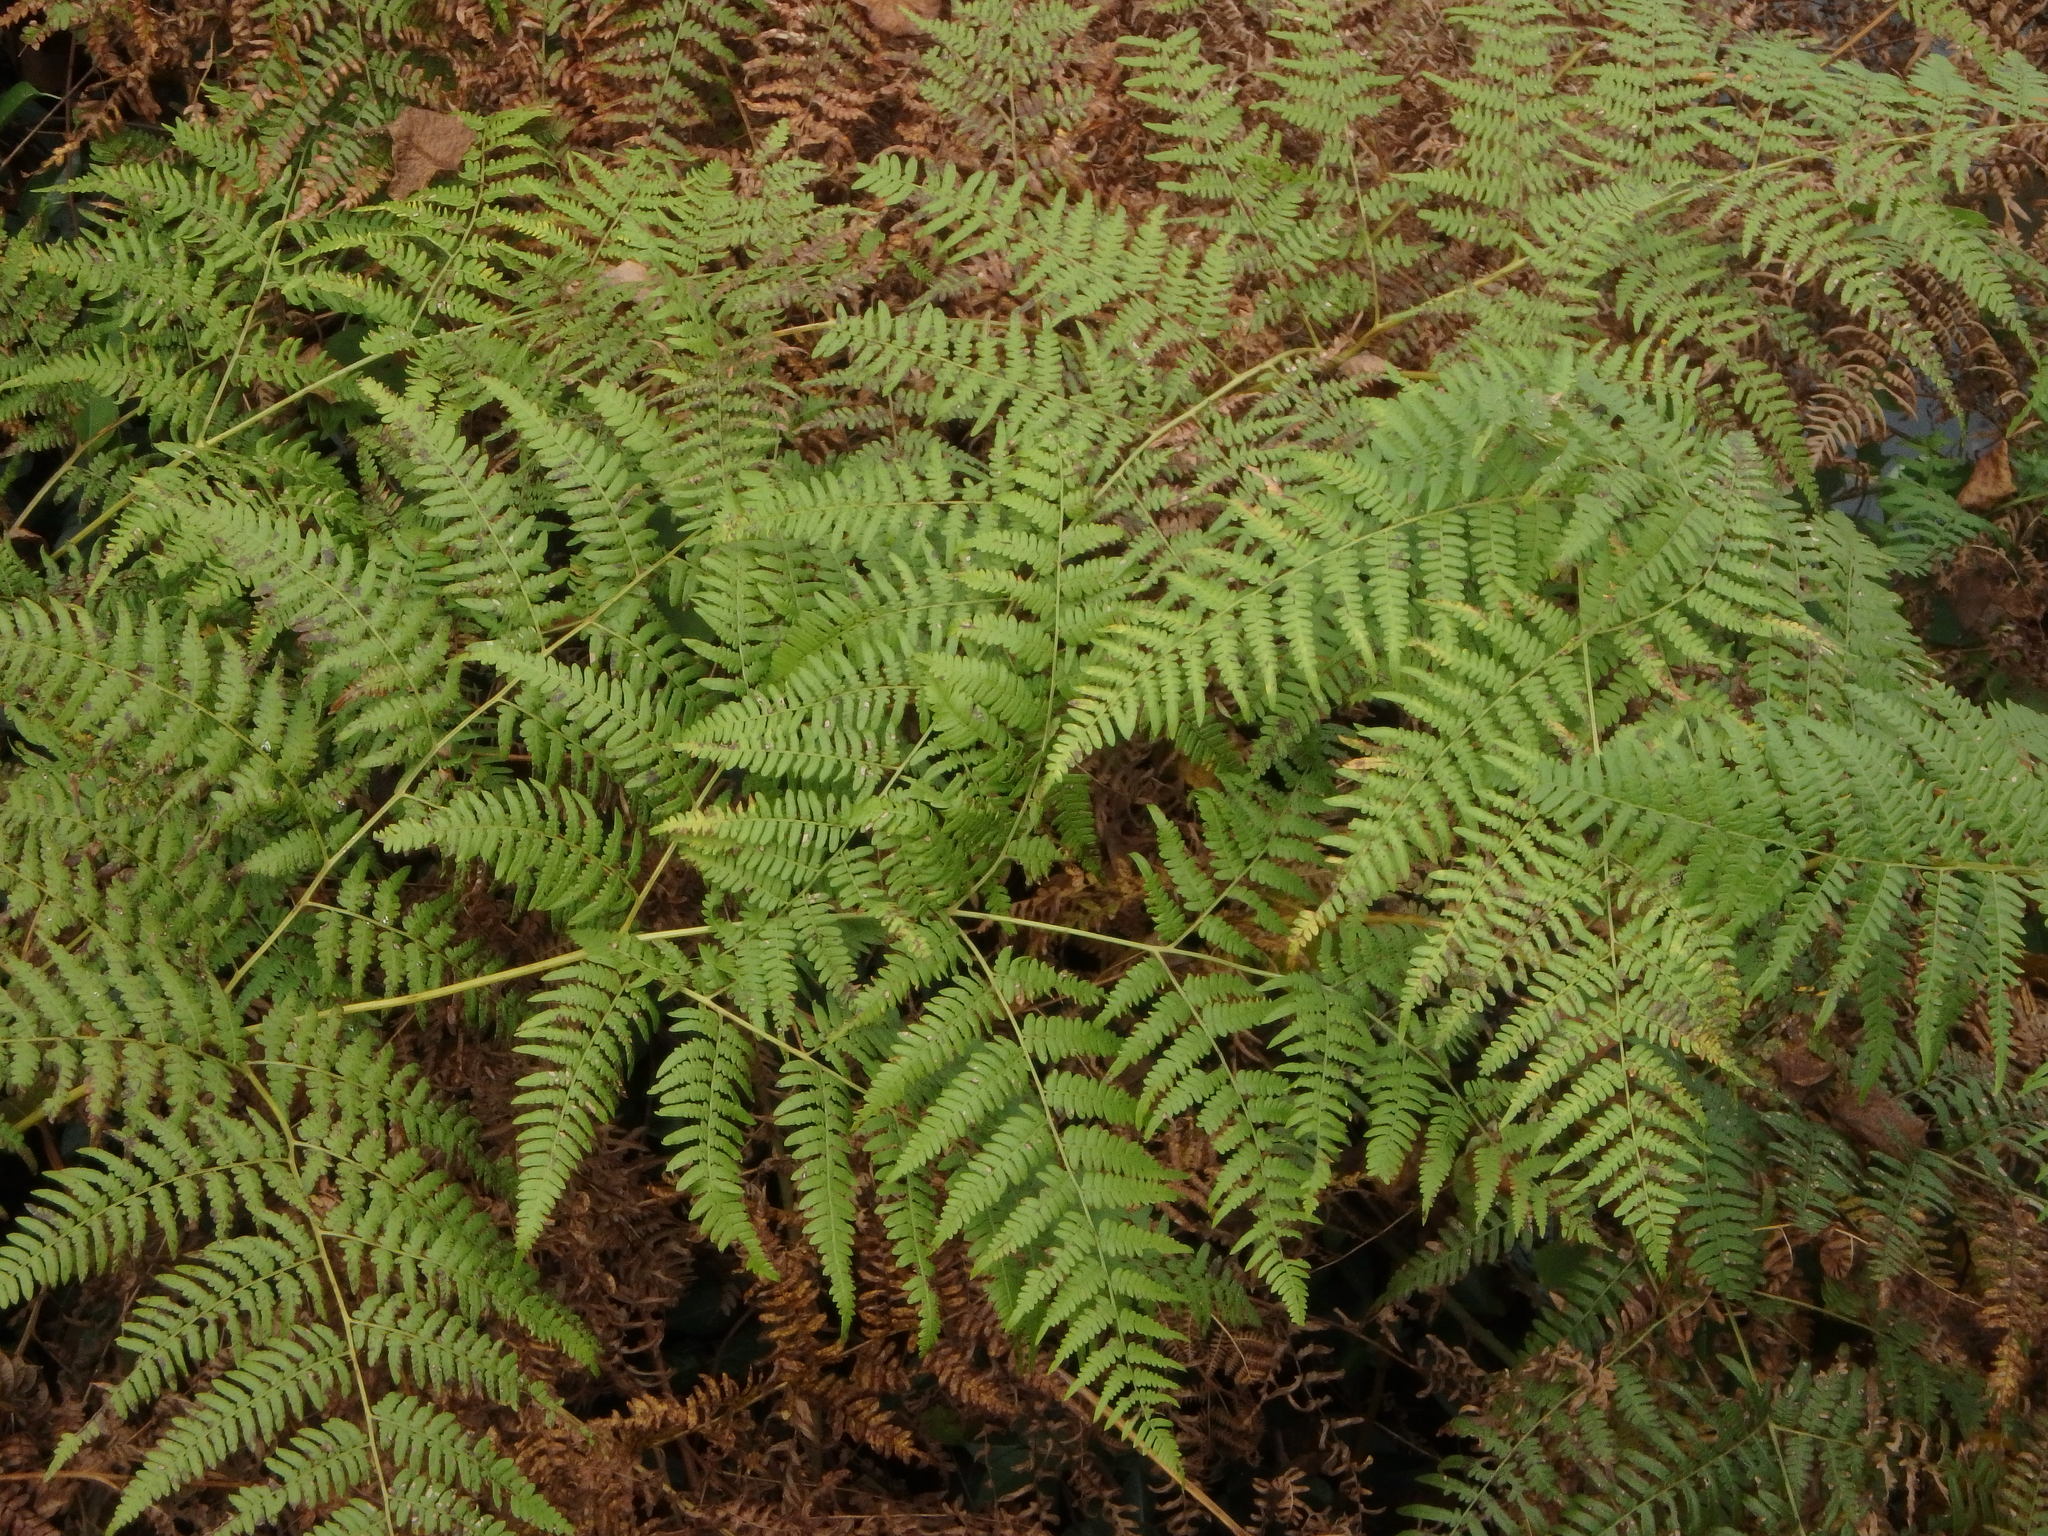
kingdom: Plantae
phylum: Tracheophyta
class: Polypodiopsida
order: Polypodiales
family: Dennstaedtiaceae
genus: Pteridium
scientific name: Pteridium aquilinum
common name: Bracken
